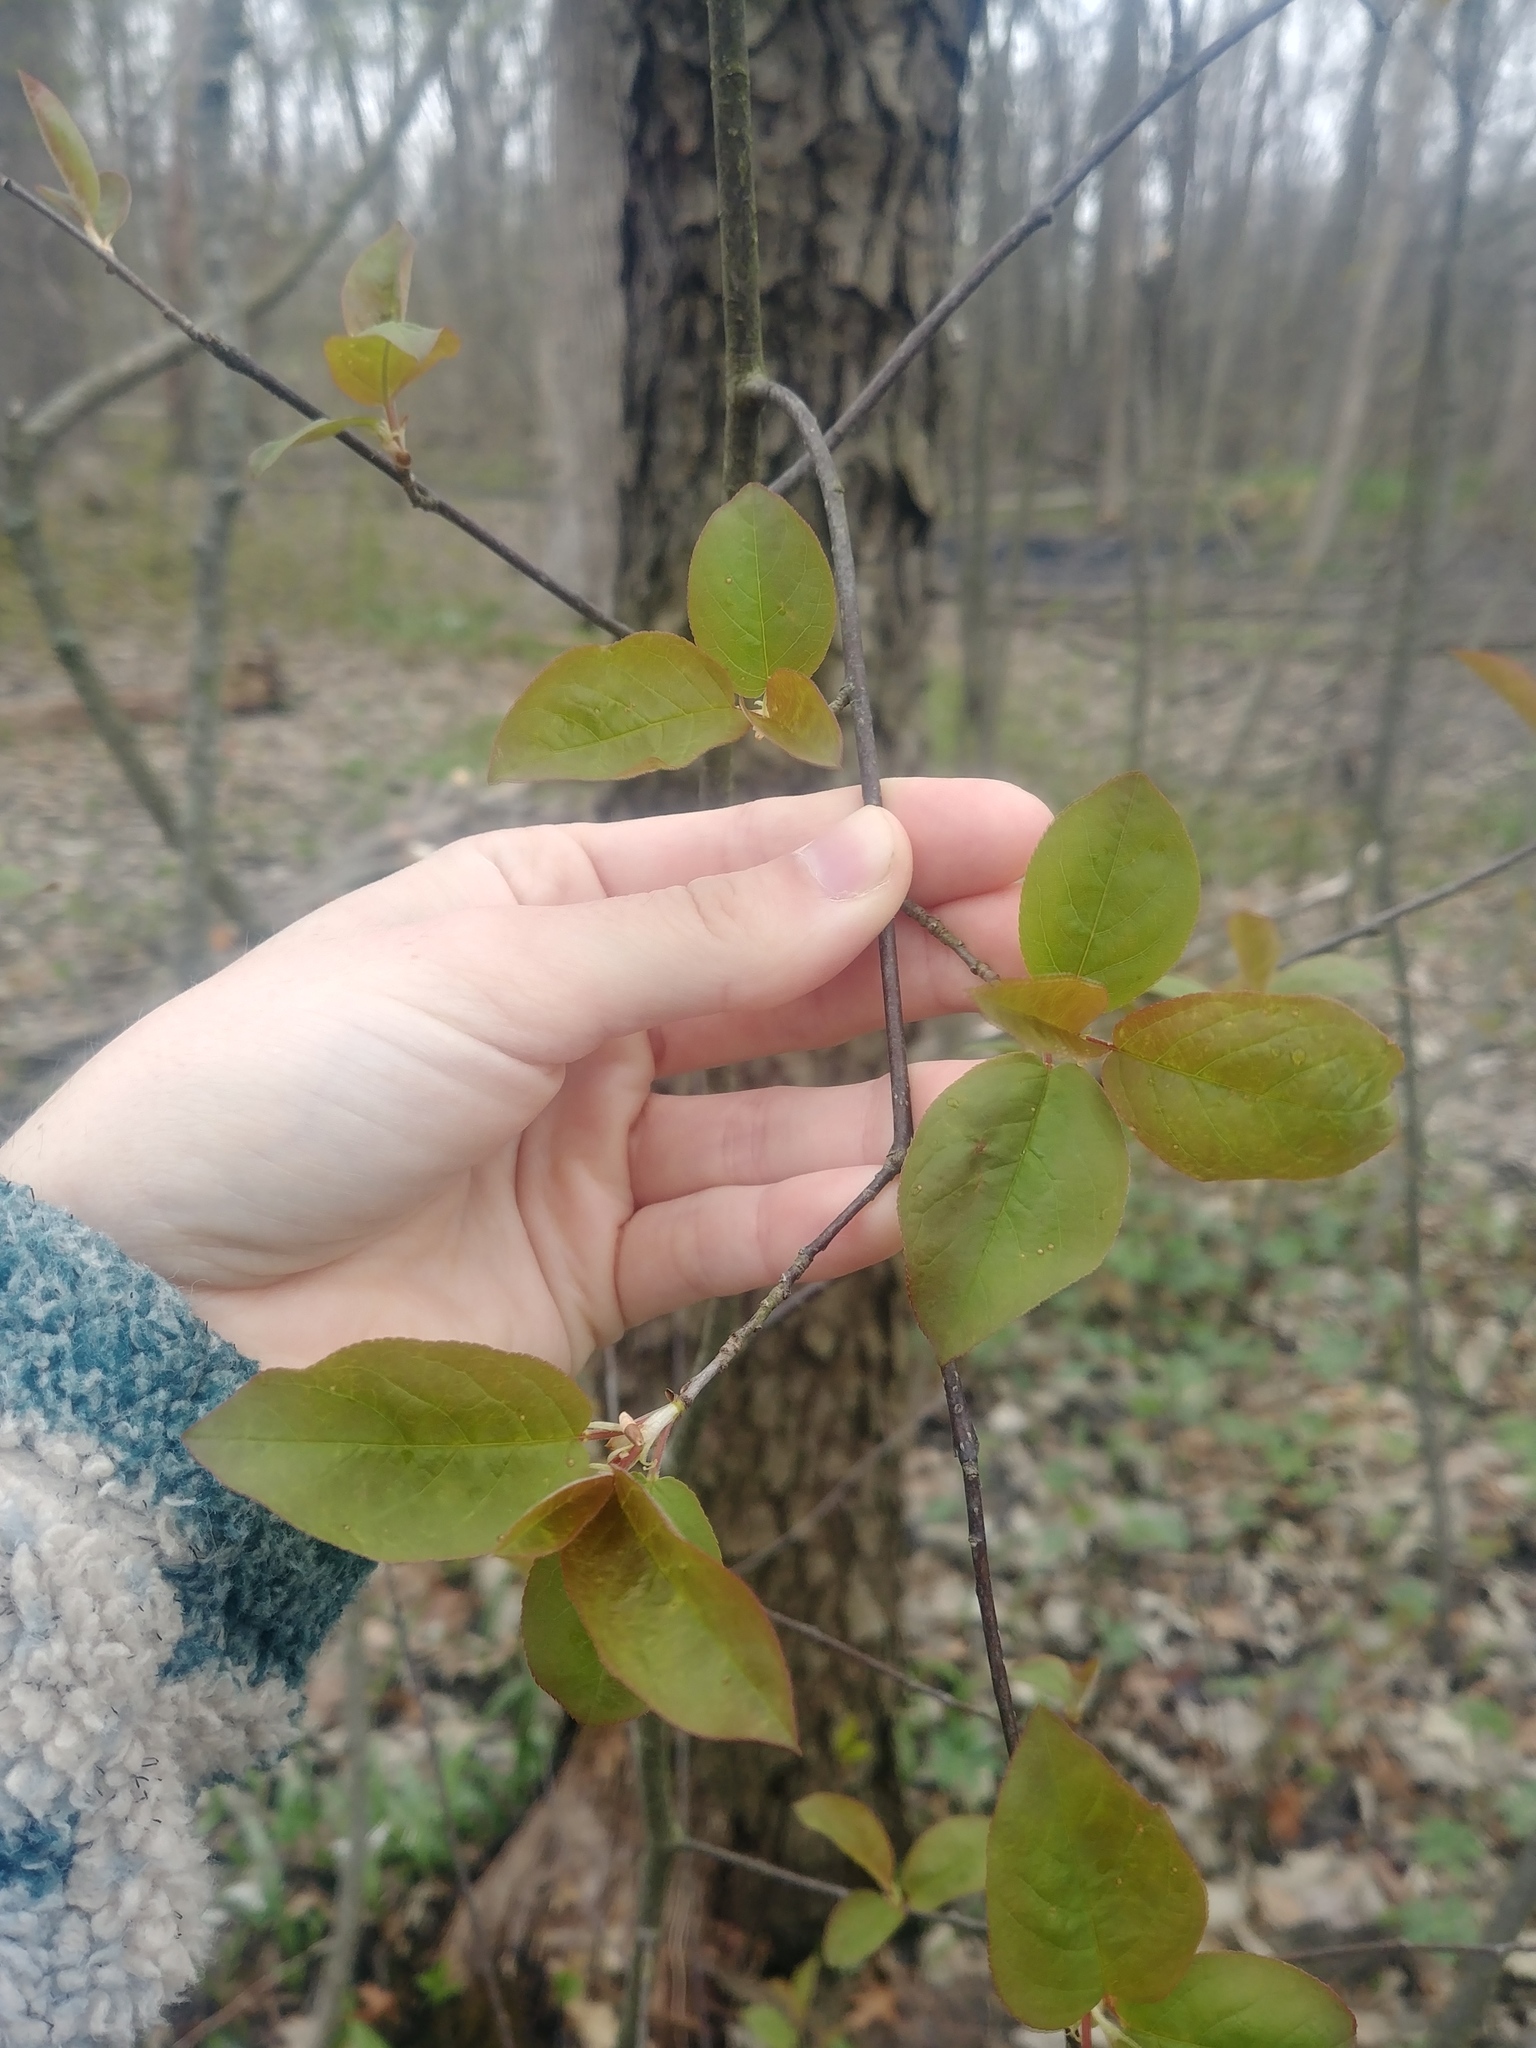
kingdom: Plantae
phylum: Tracheophyta
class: Magnoliopsida
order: Rosales
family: Rosaceae
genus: Prunus
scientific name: Prunus serotina
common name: Black cherry
